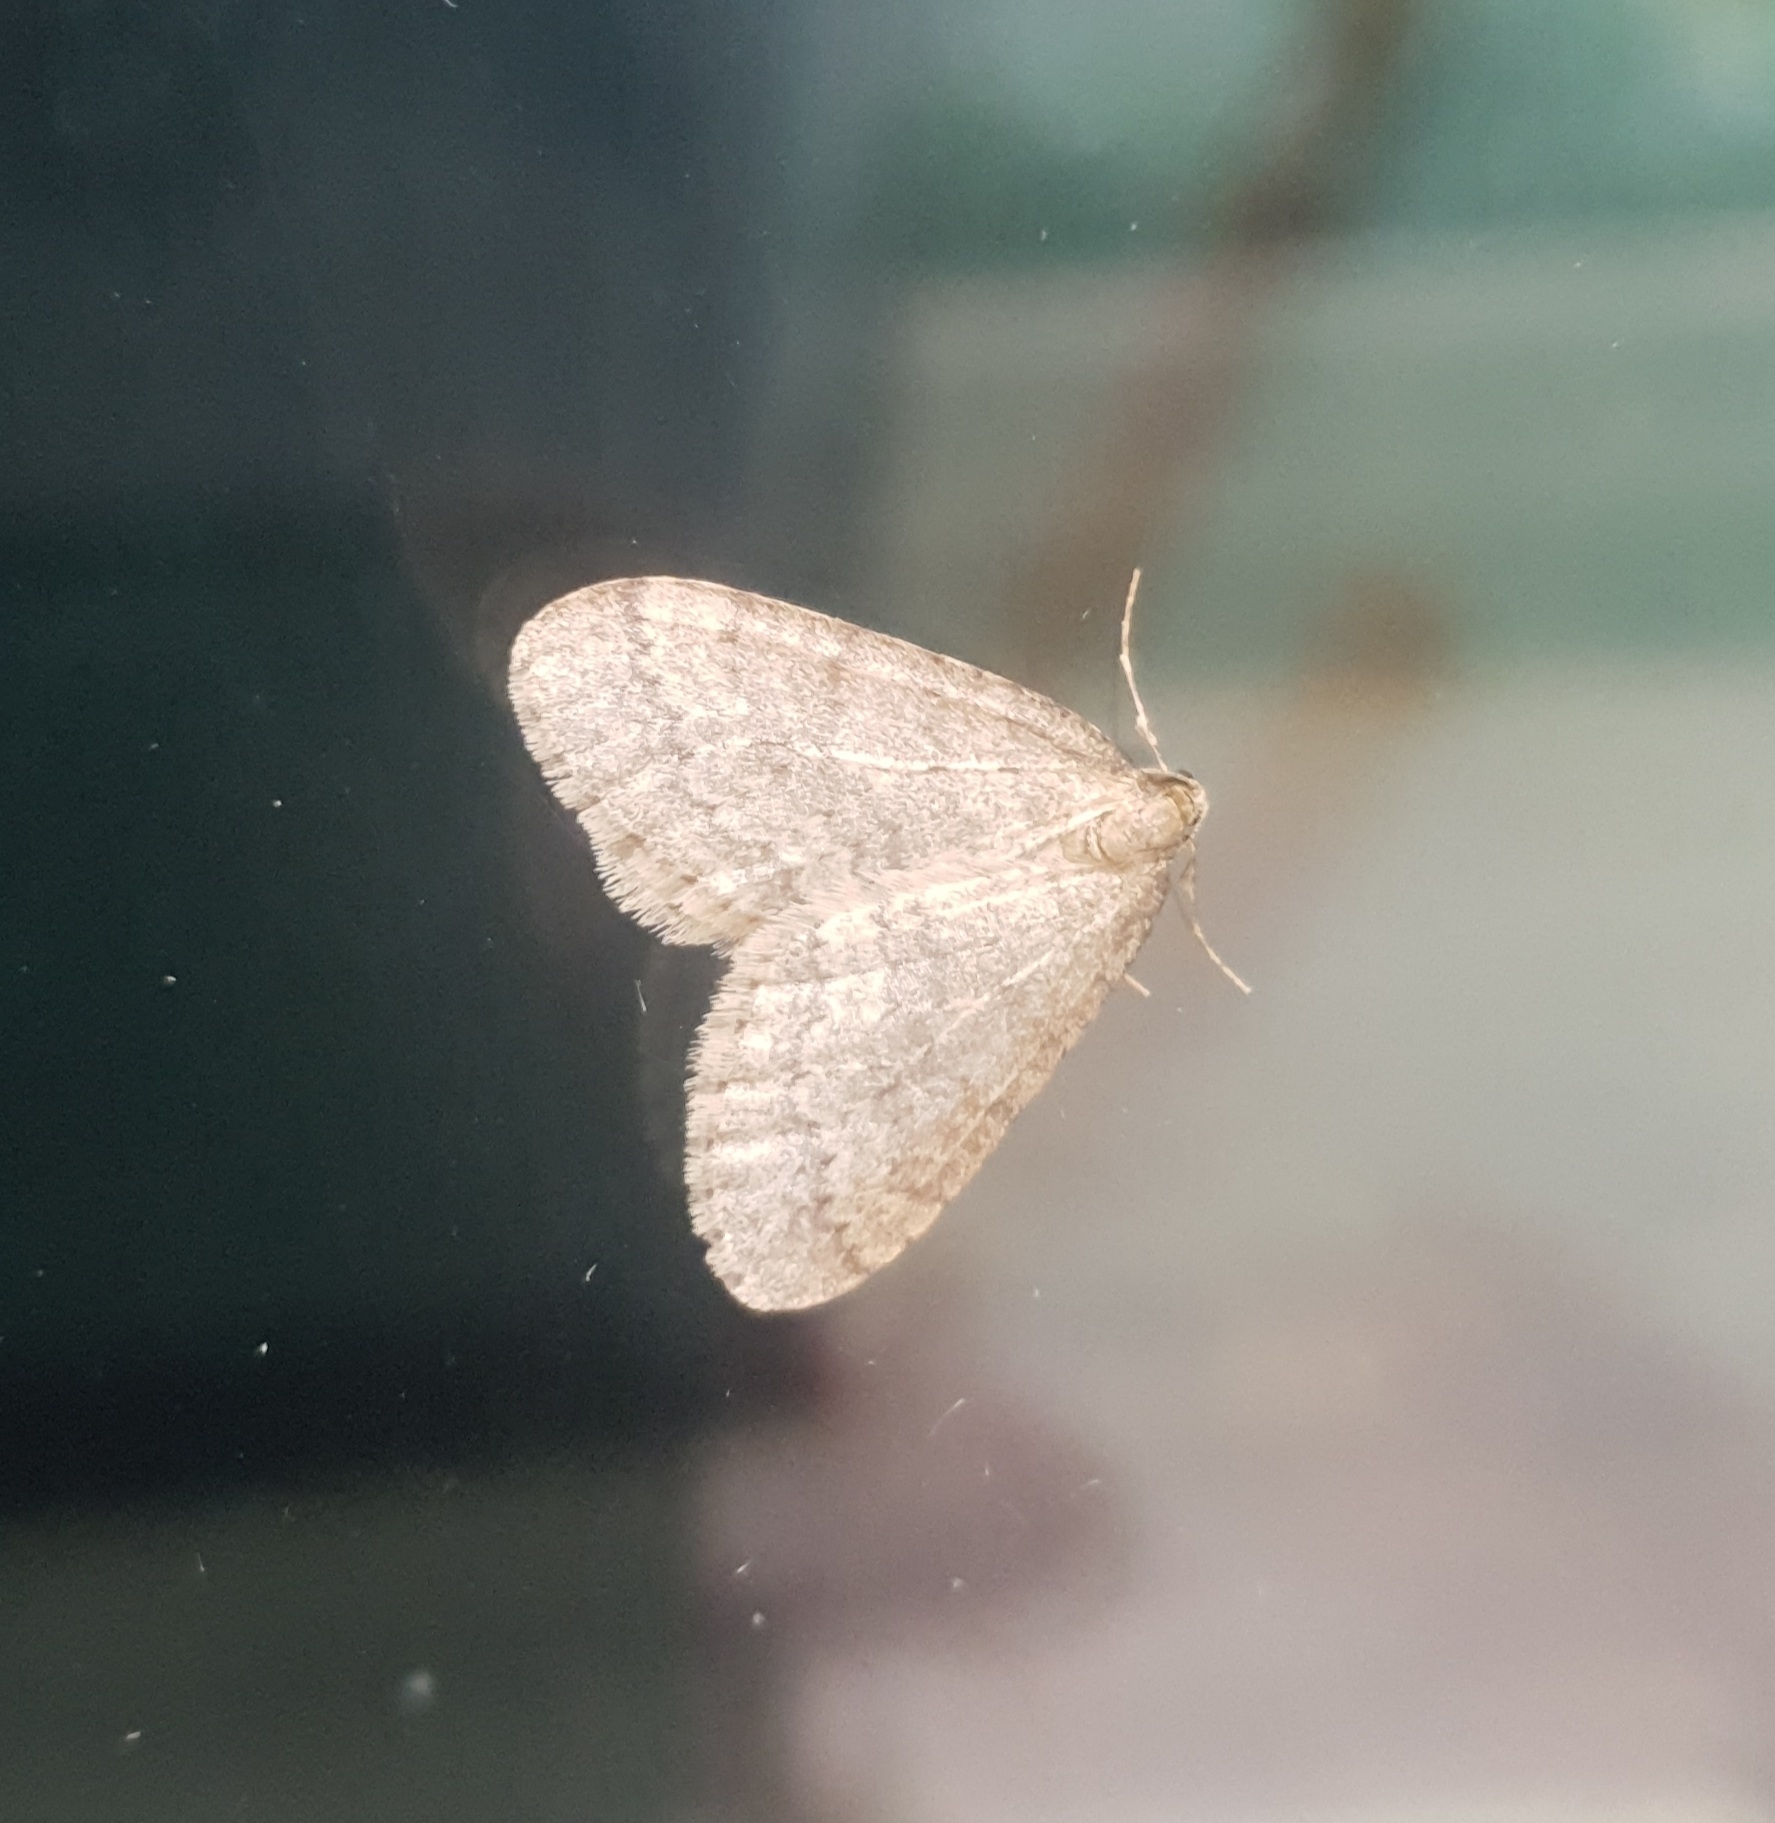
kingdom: Animalia
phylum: Arthropoda
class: Insecta
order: Lepidoptera
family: Geometridae
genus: Operophtera
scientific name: Operophtera brumata
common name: Winter moth
